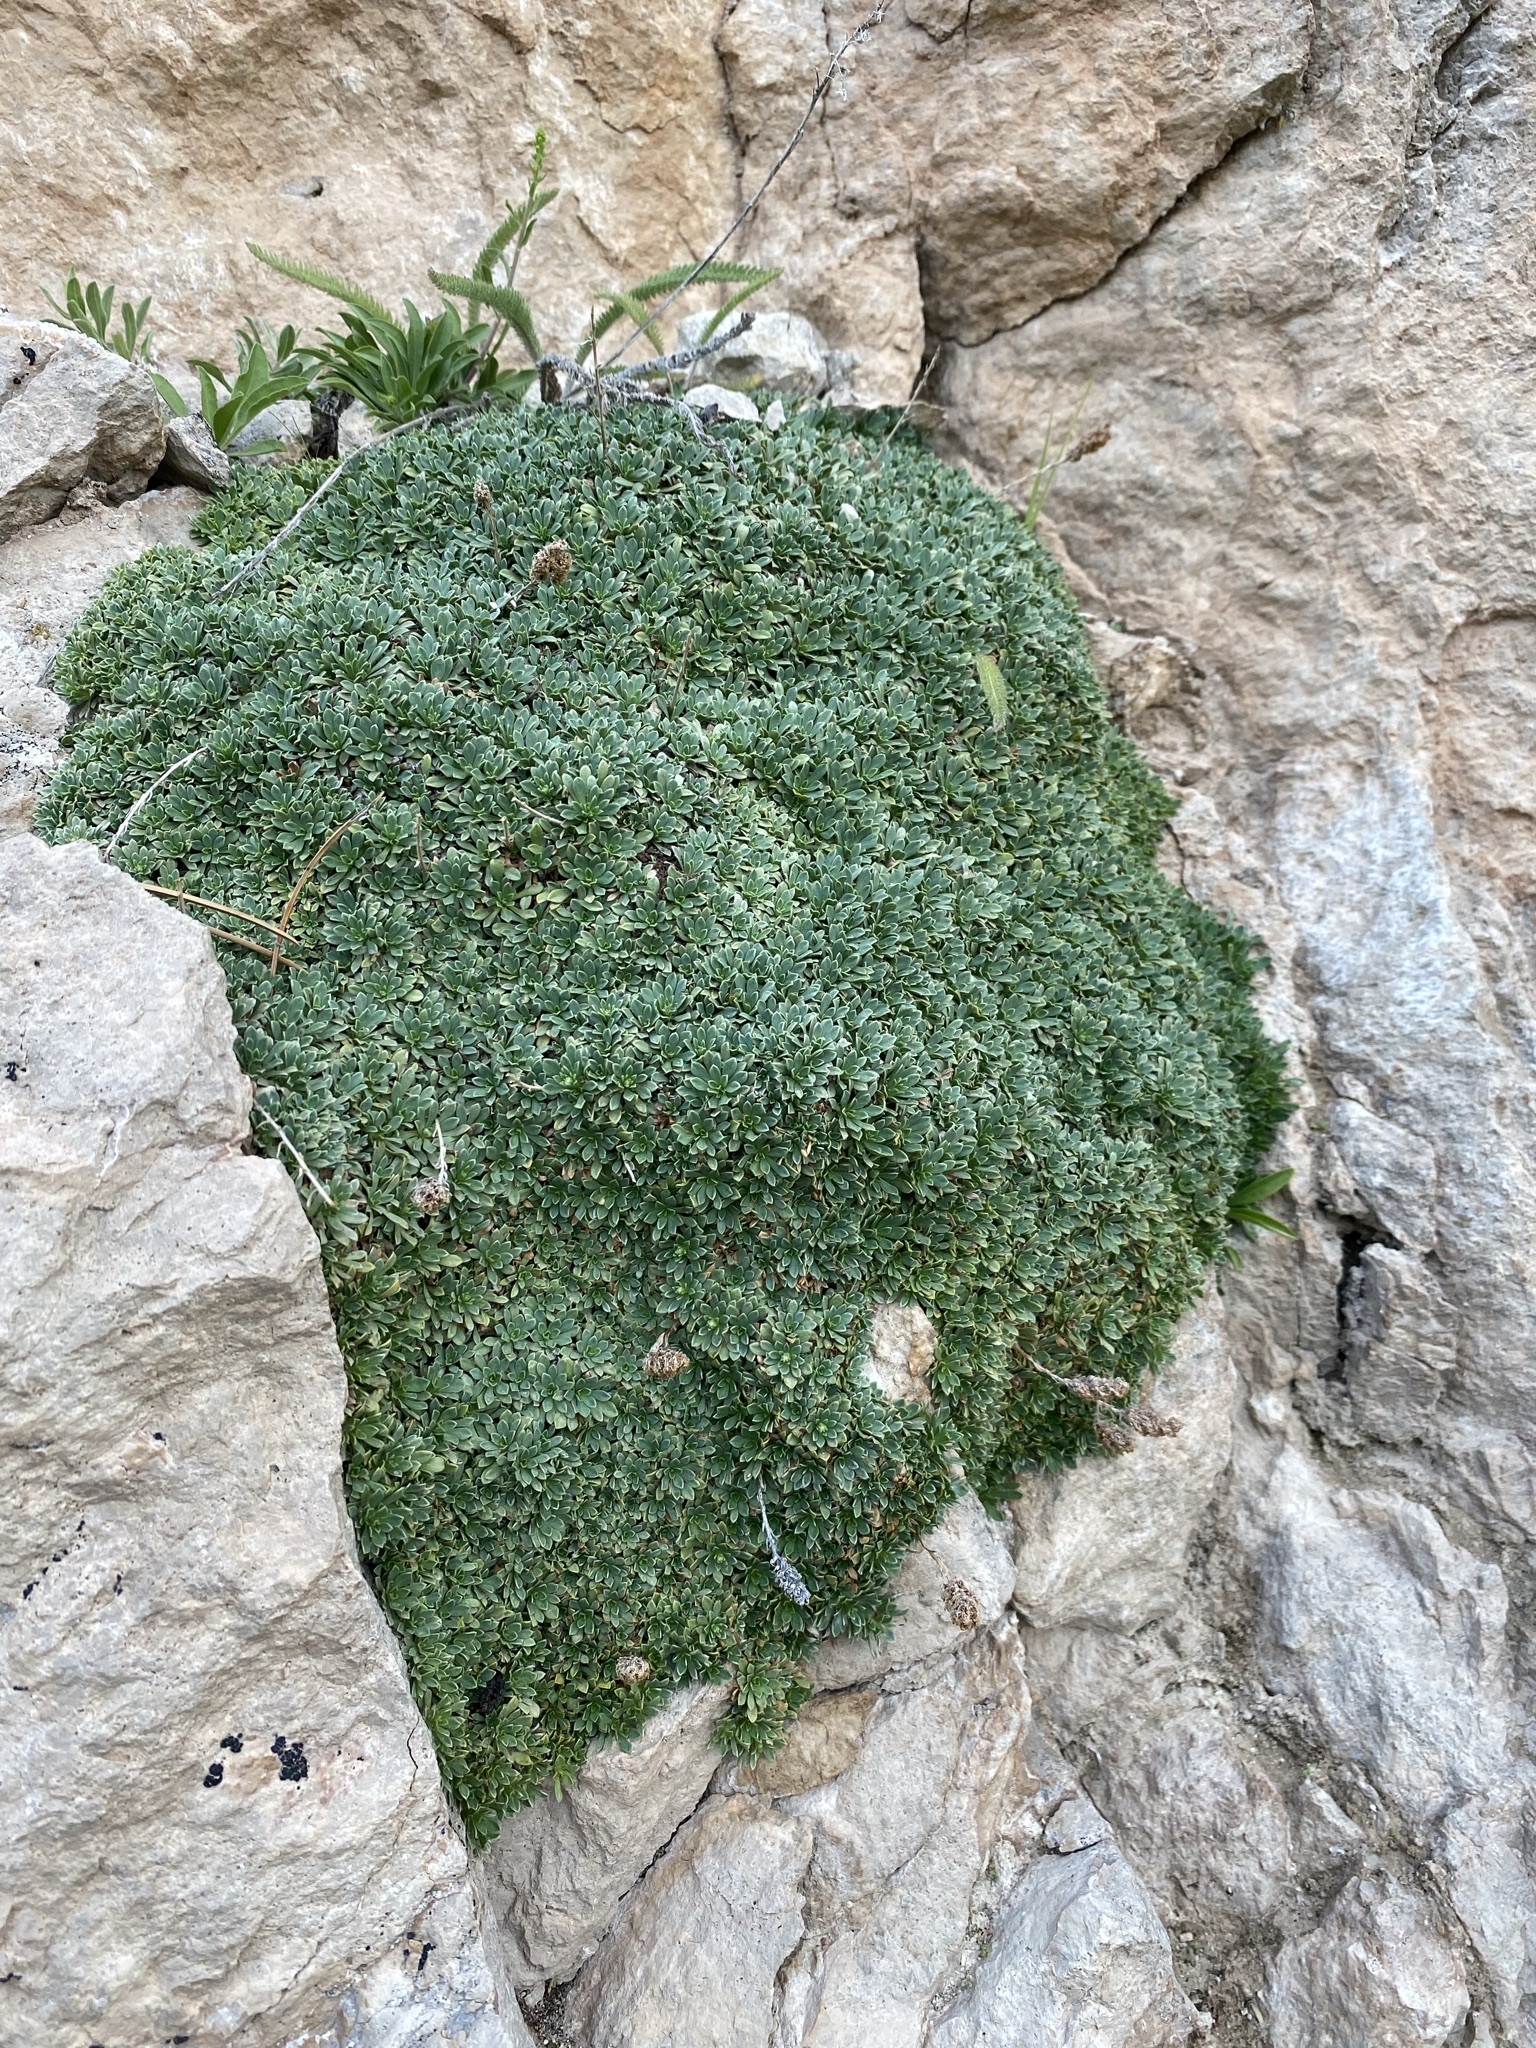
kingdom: Plantae
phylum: Tracheophyta
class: Magnoliopsida
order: Rosales
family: Rosaceae
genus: Petrophytum
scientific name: Petrophytum caespitosum
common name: Mat rockspirea
